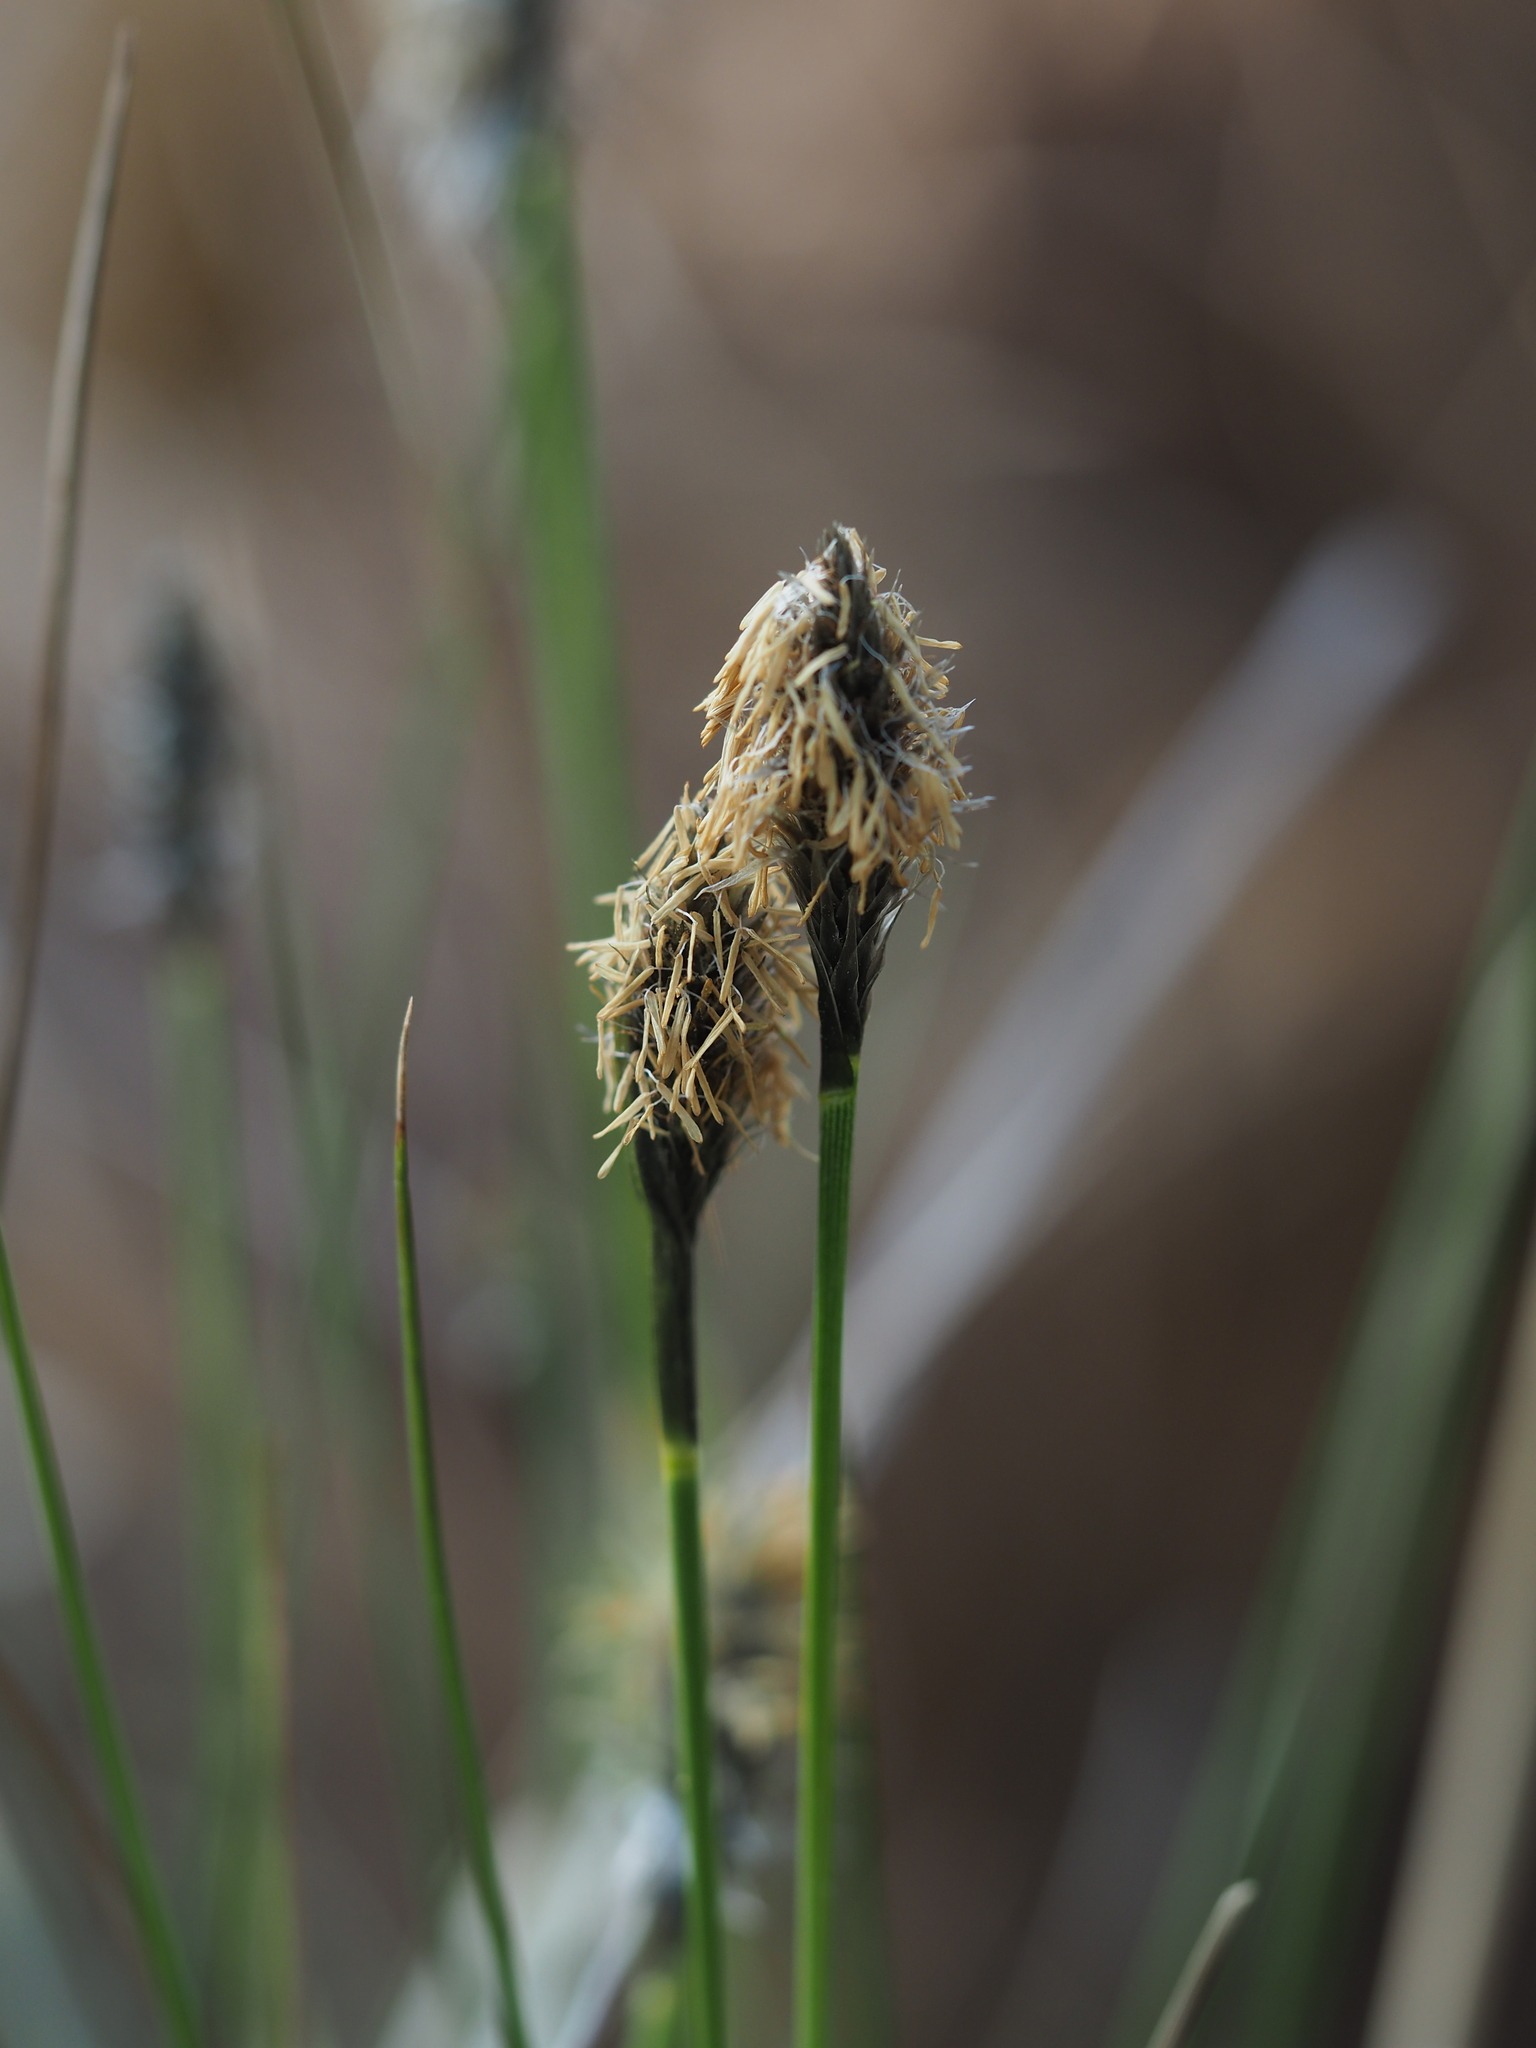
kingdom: Plantae
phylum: Tracheophyta
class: Liliopsida
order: Poales
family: Cyperaceae
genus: Eriophorum
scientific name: Eriophorum vaginatum
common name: Hare's-tail cottongrass
